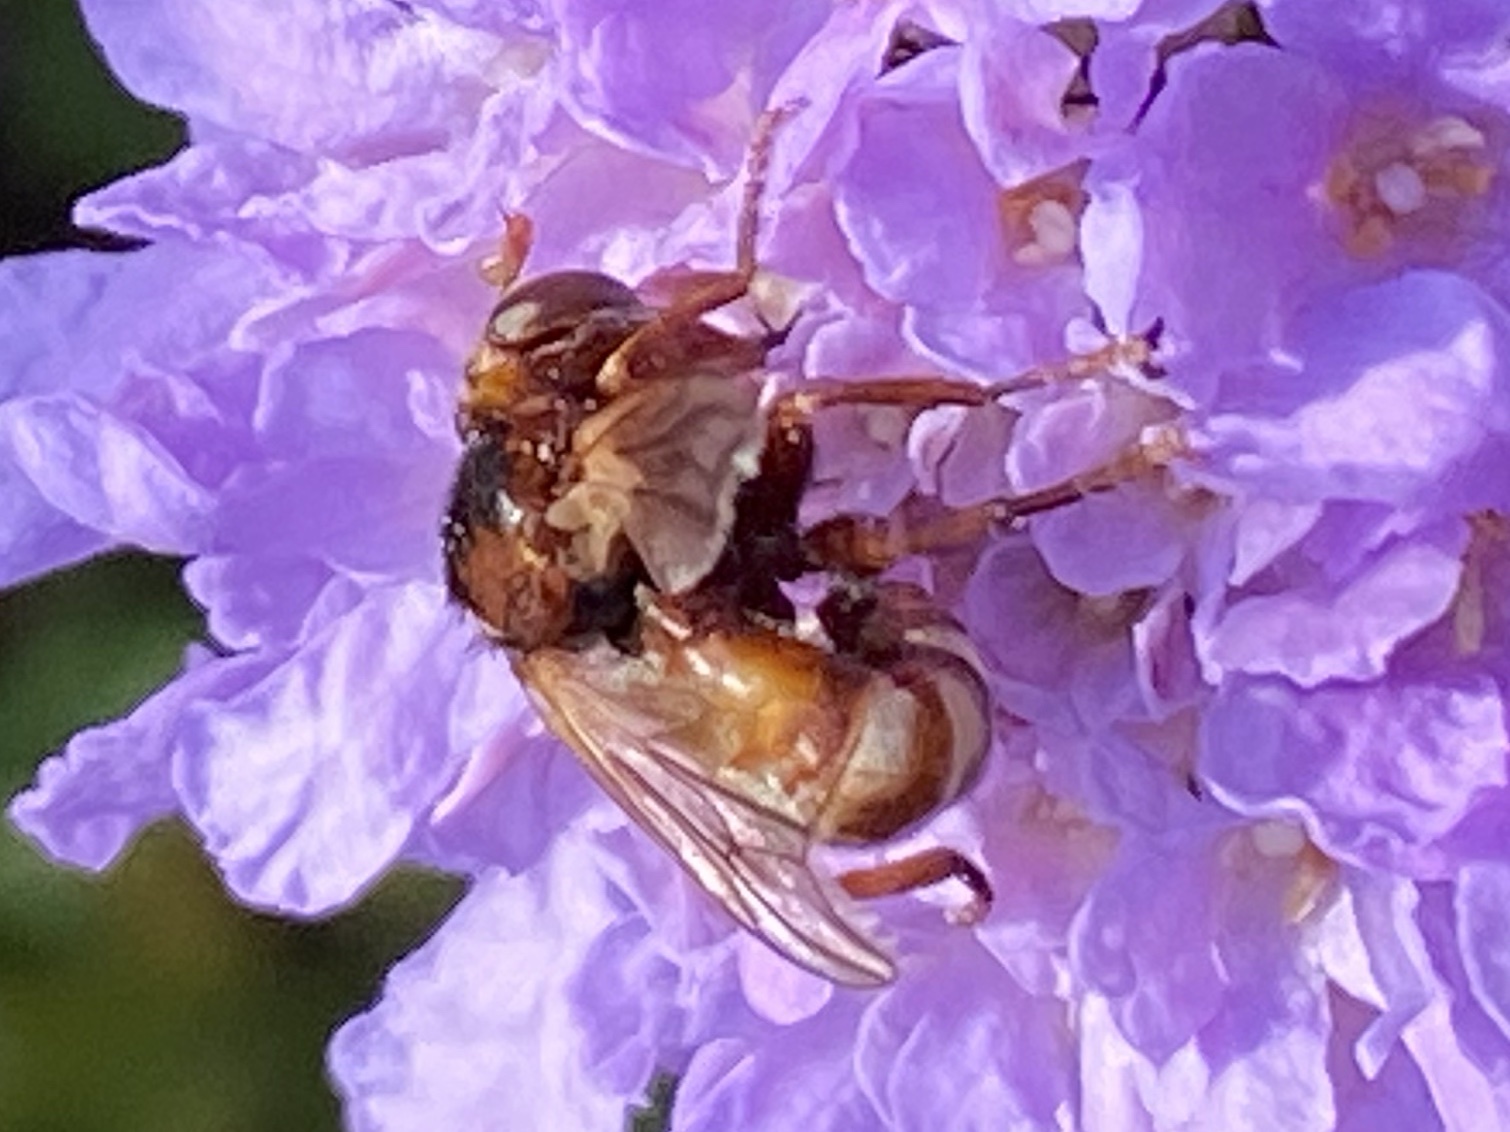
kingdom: Animalia
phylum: Arthropoda
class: Insecta
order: Diptera
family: Conopidae
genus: Sicus
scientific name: Sicus ferrugineus
